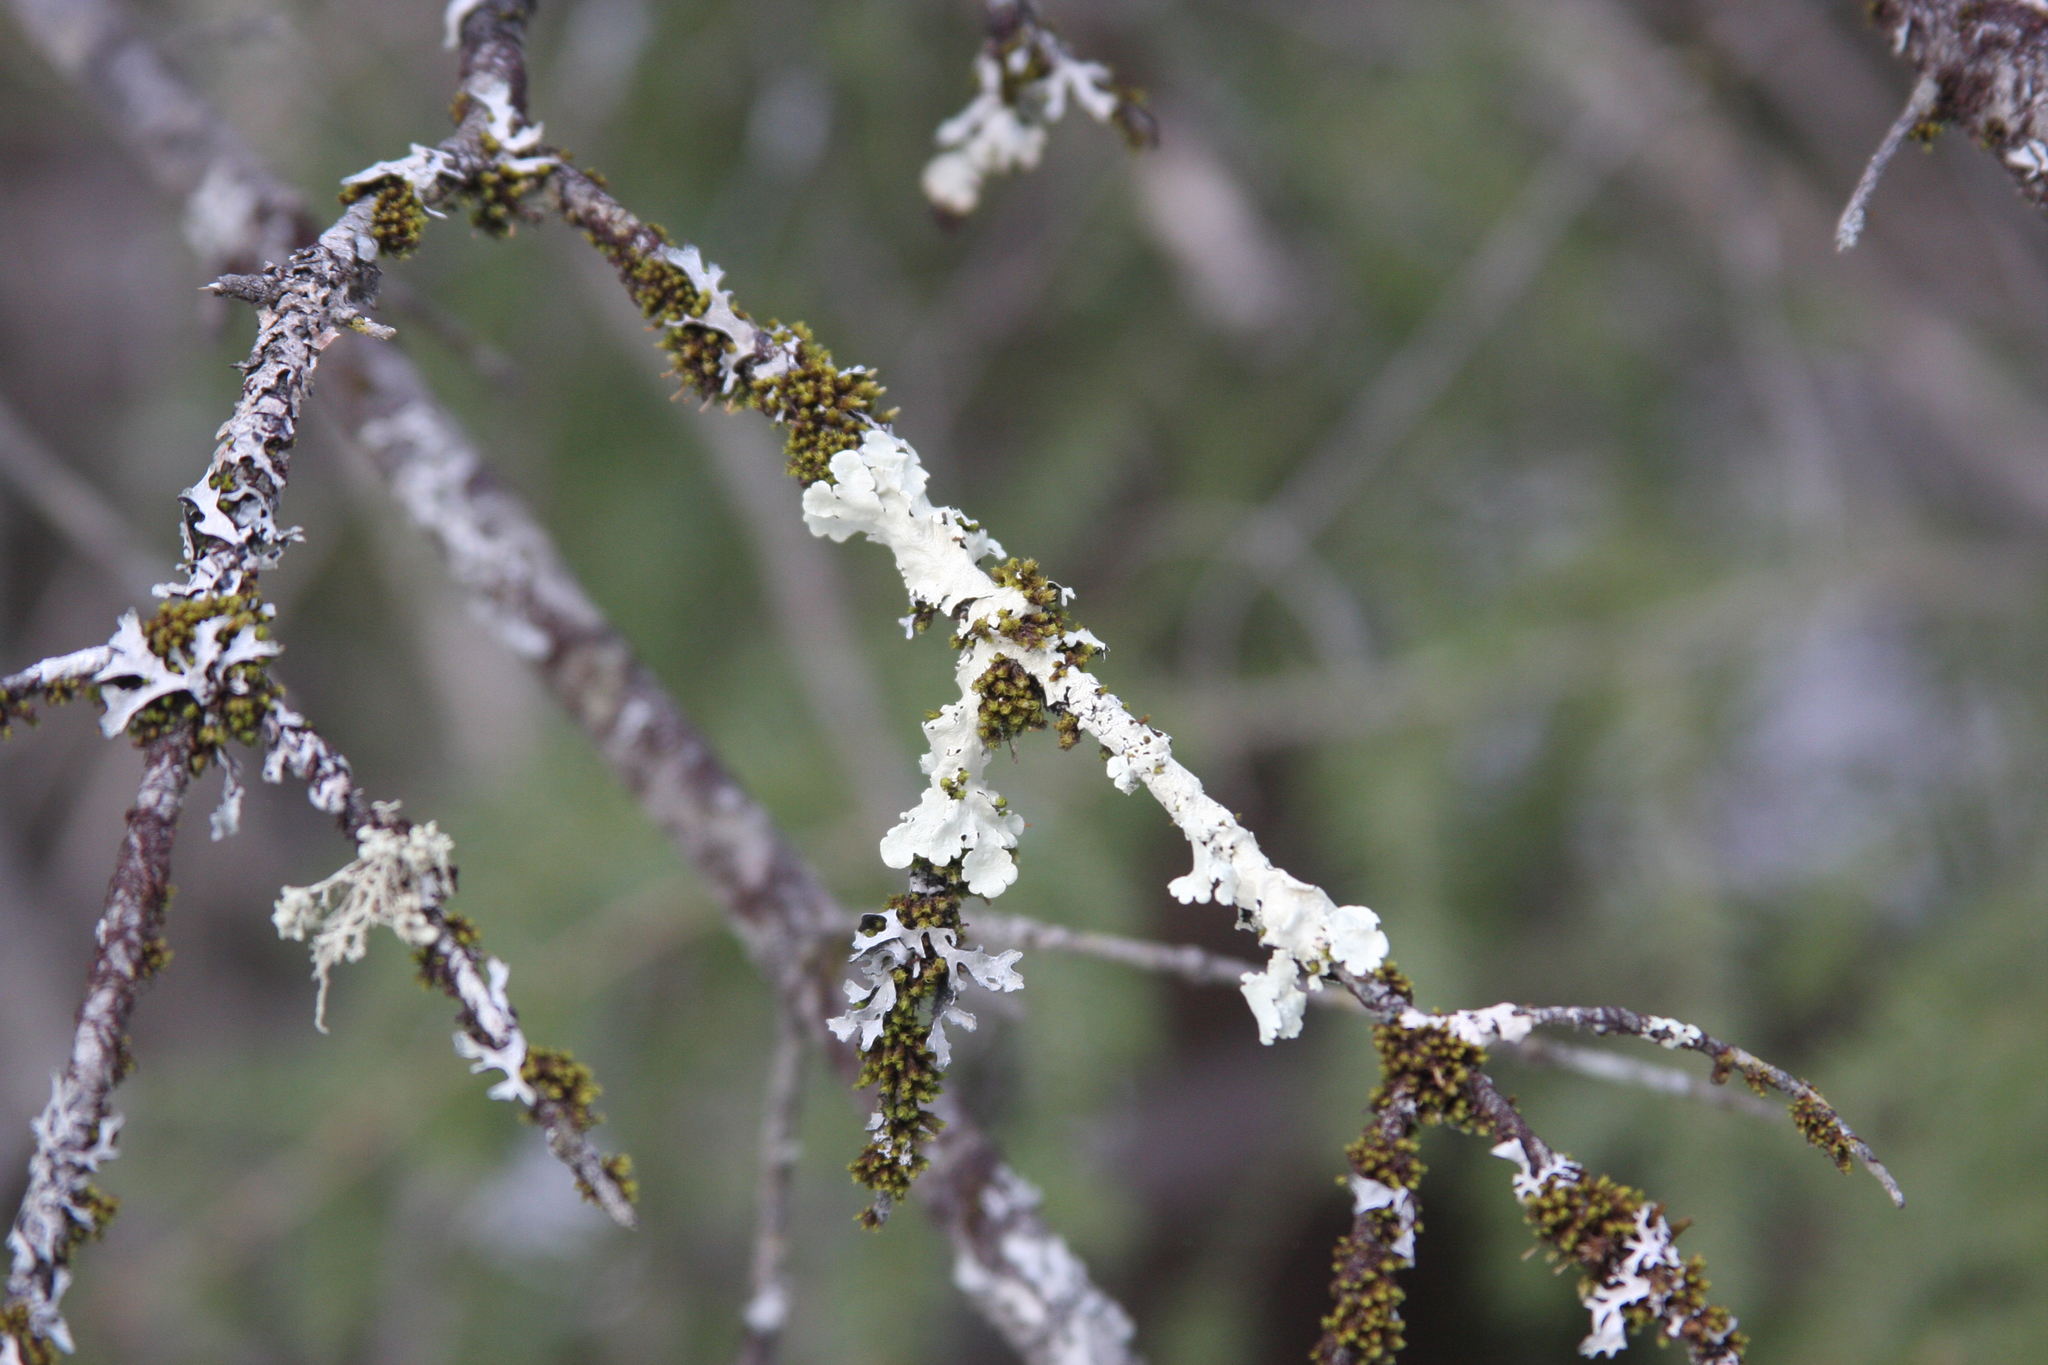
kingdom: Fungi
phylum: Ascomycota
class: Lecanoromycetes
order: Lecanorales
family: Parmeliaceae
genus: Flavoparmelia
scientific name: Flavoparmelia caperata
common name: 40-mile per hour lichen
